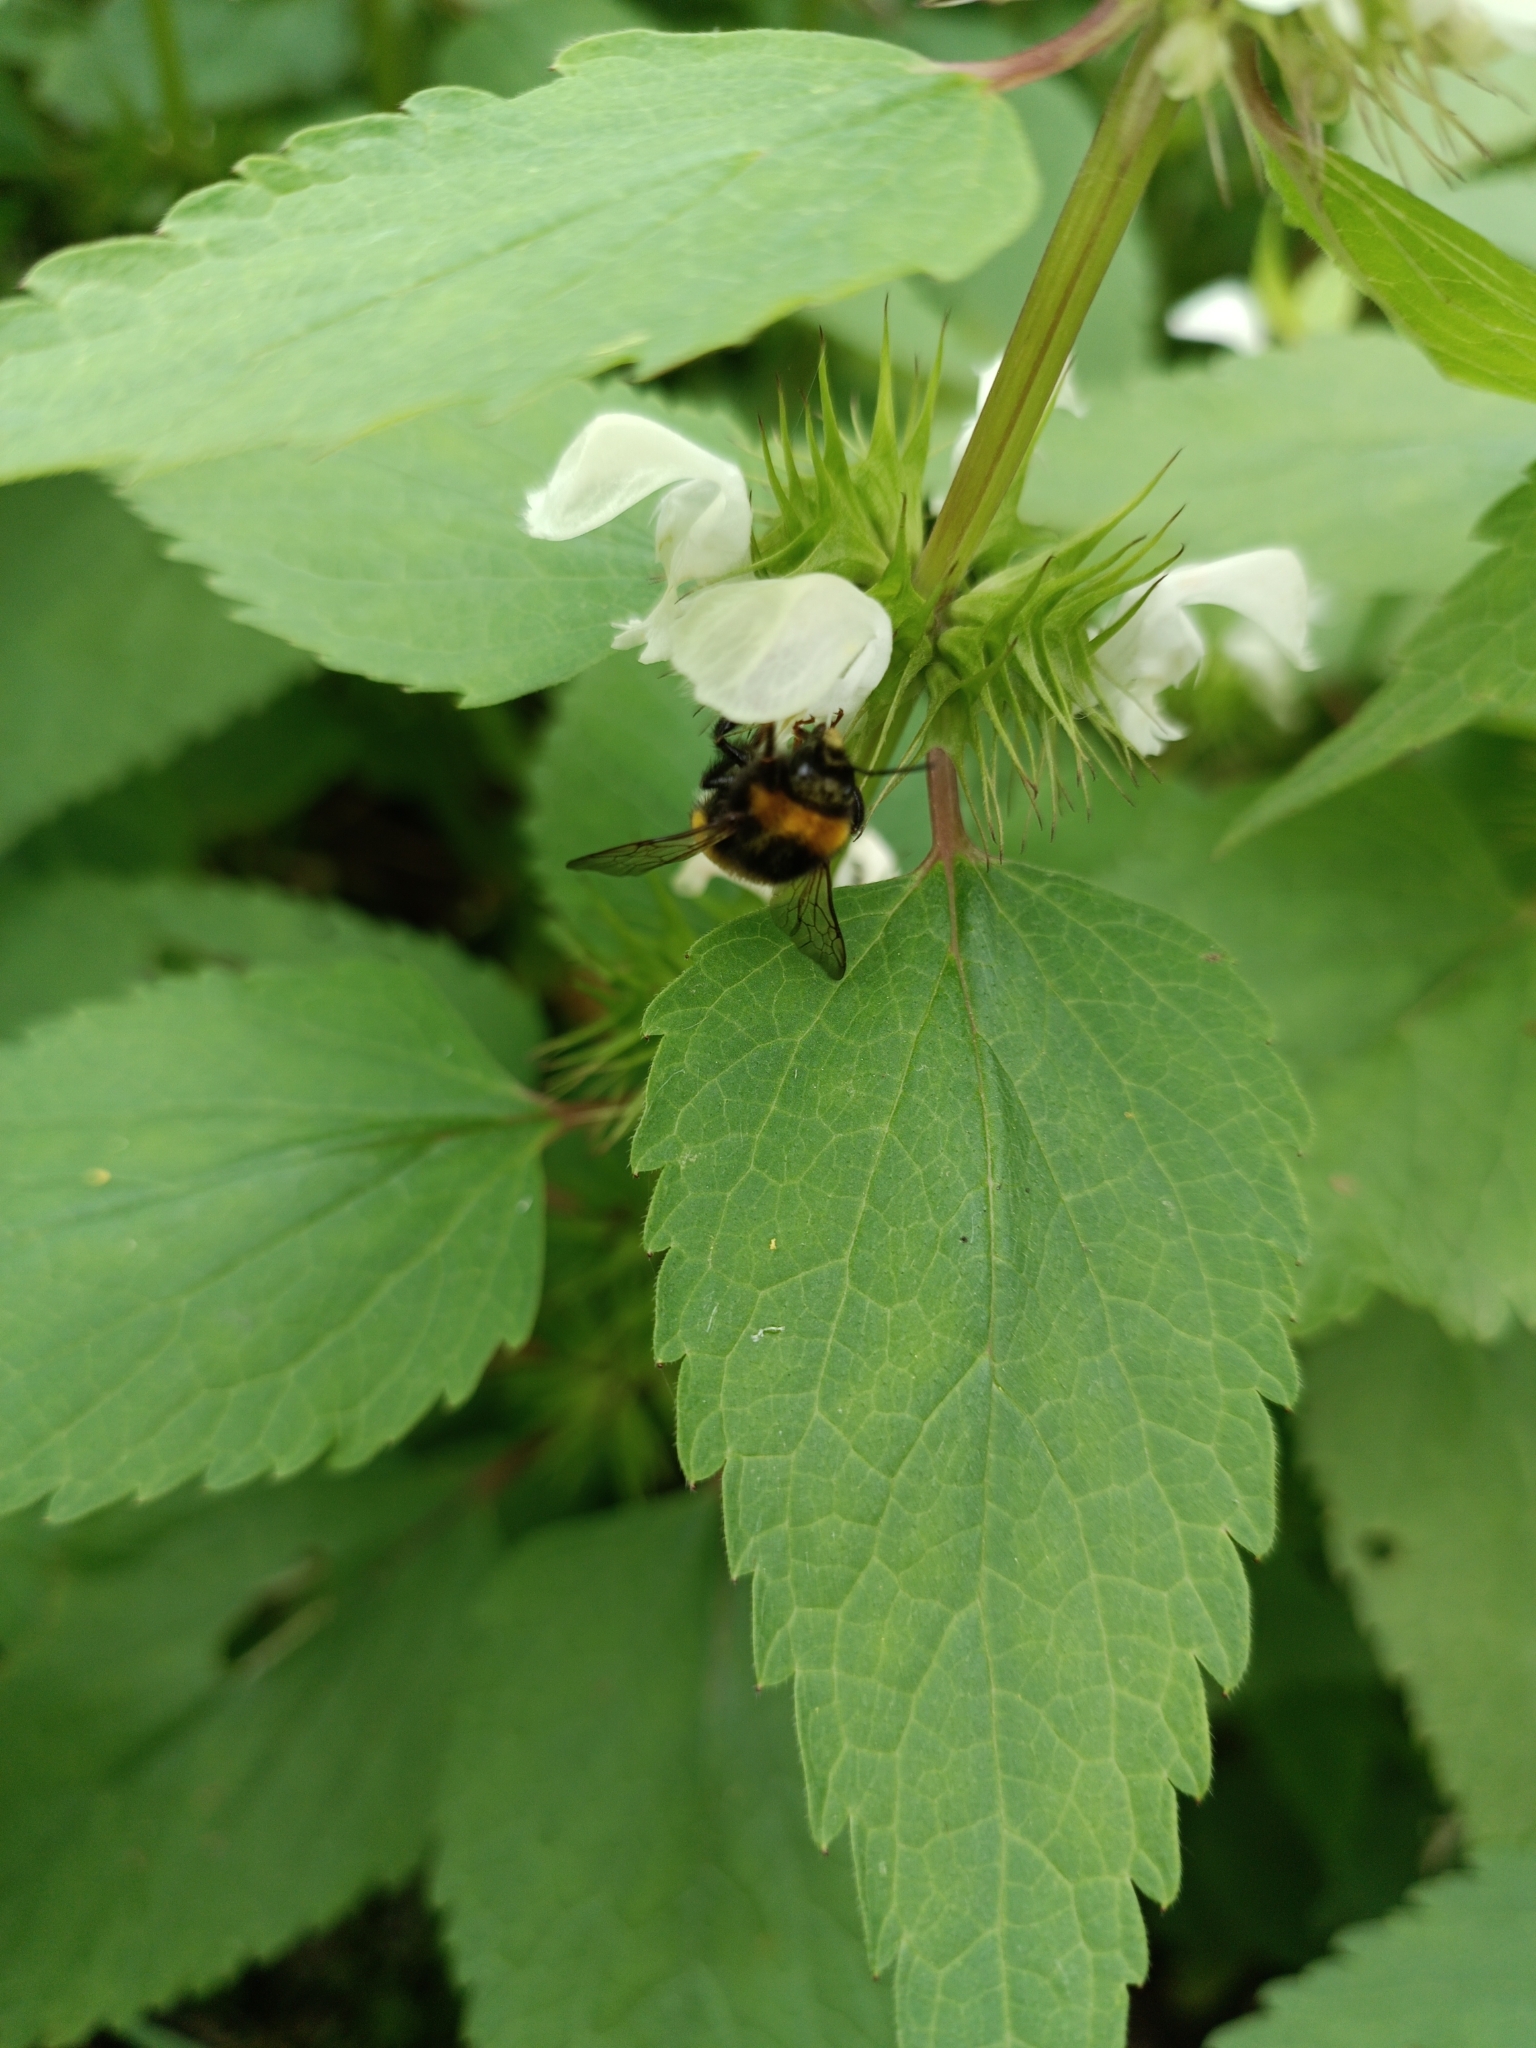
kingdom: Animalia
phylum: Arthropoda
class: Insecta
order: Hymenoptera
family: Apidae
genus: Bombus
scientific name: Bombus
